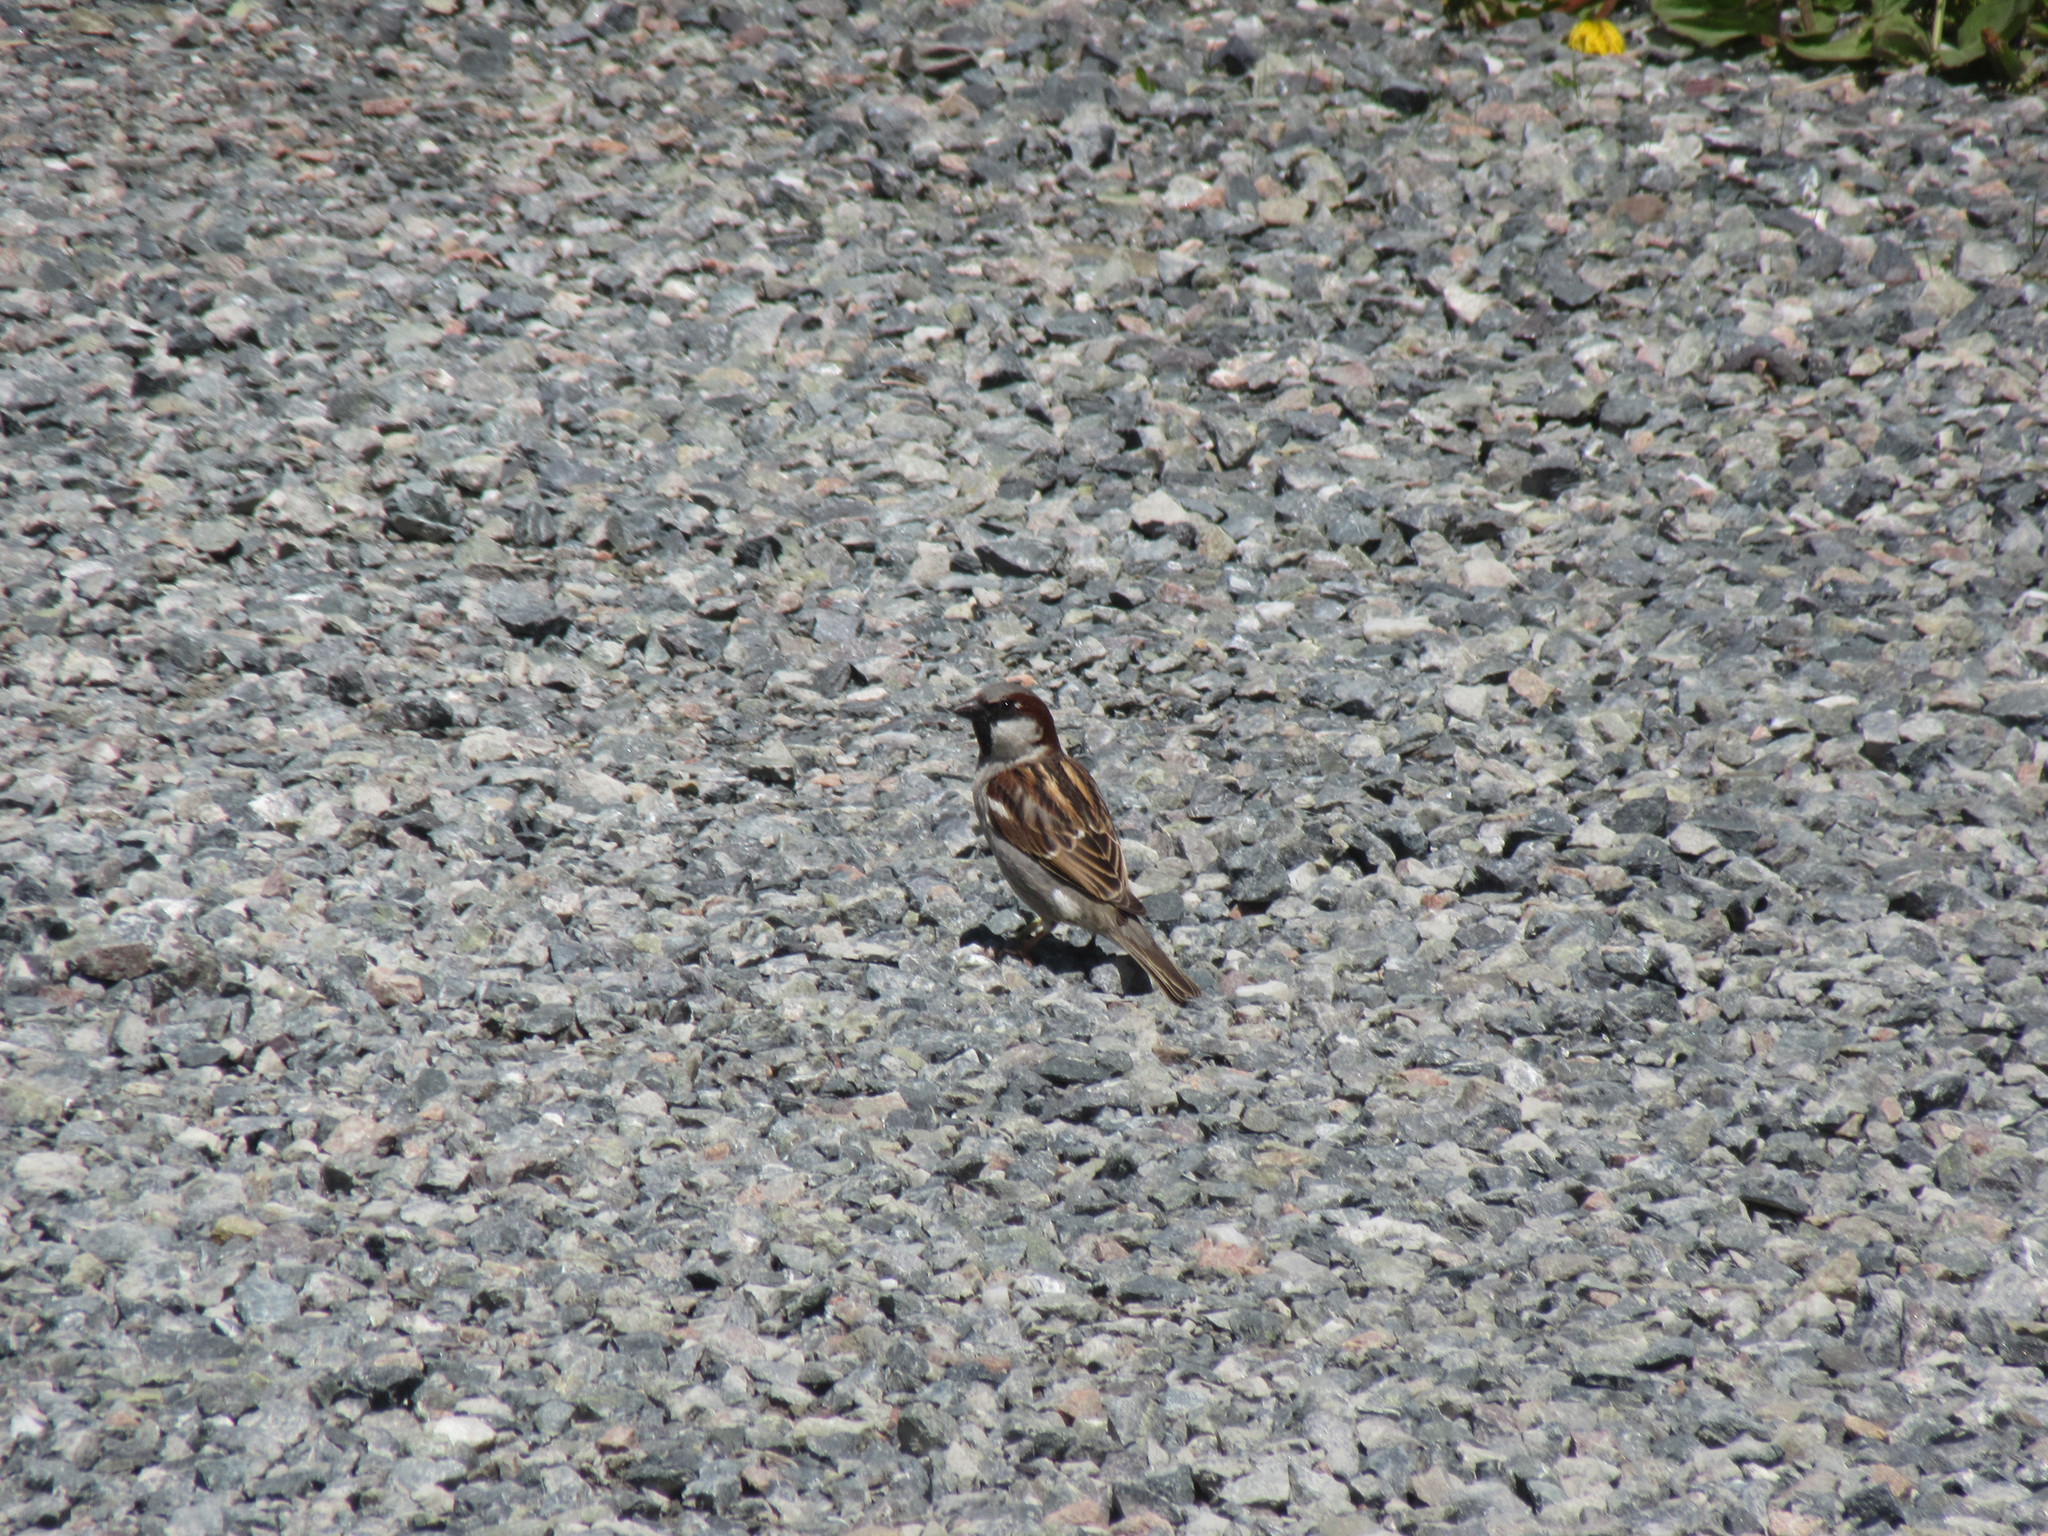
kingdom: Animalia
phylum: Chordata
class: Aves
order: Passeriformes
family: Passeridae
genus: Passer
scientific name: Passer domesticus
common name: House sparrow
